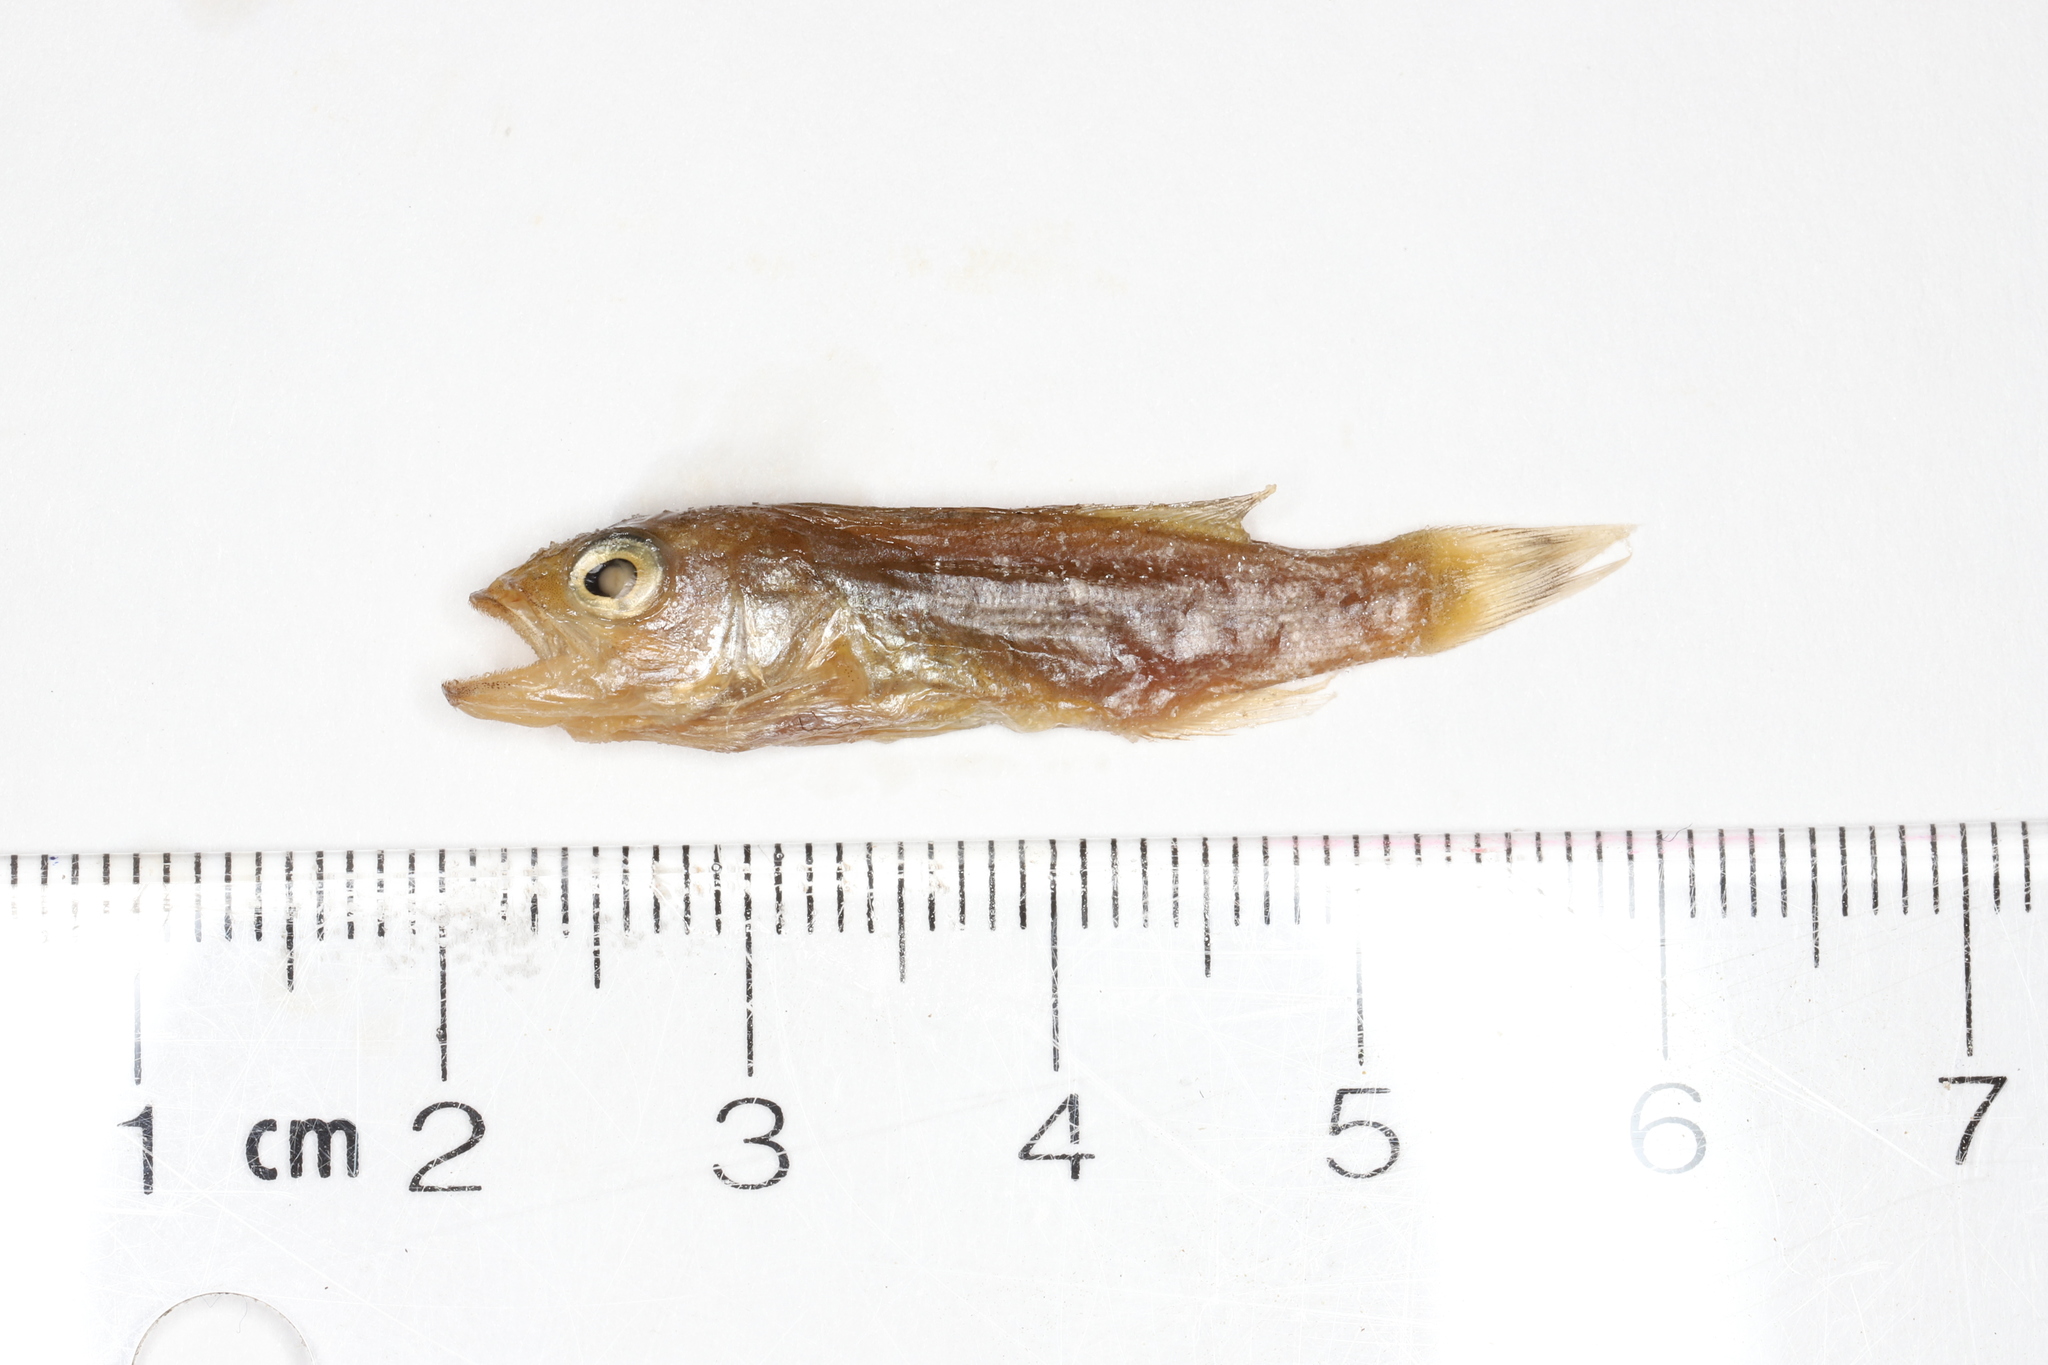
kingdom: Animalia
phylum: Chordata
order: Perciformes
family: Centrarchidae
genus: Micropterus
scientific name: Micropterus dolomieu
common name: Smallmouth bass
